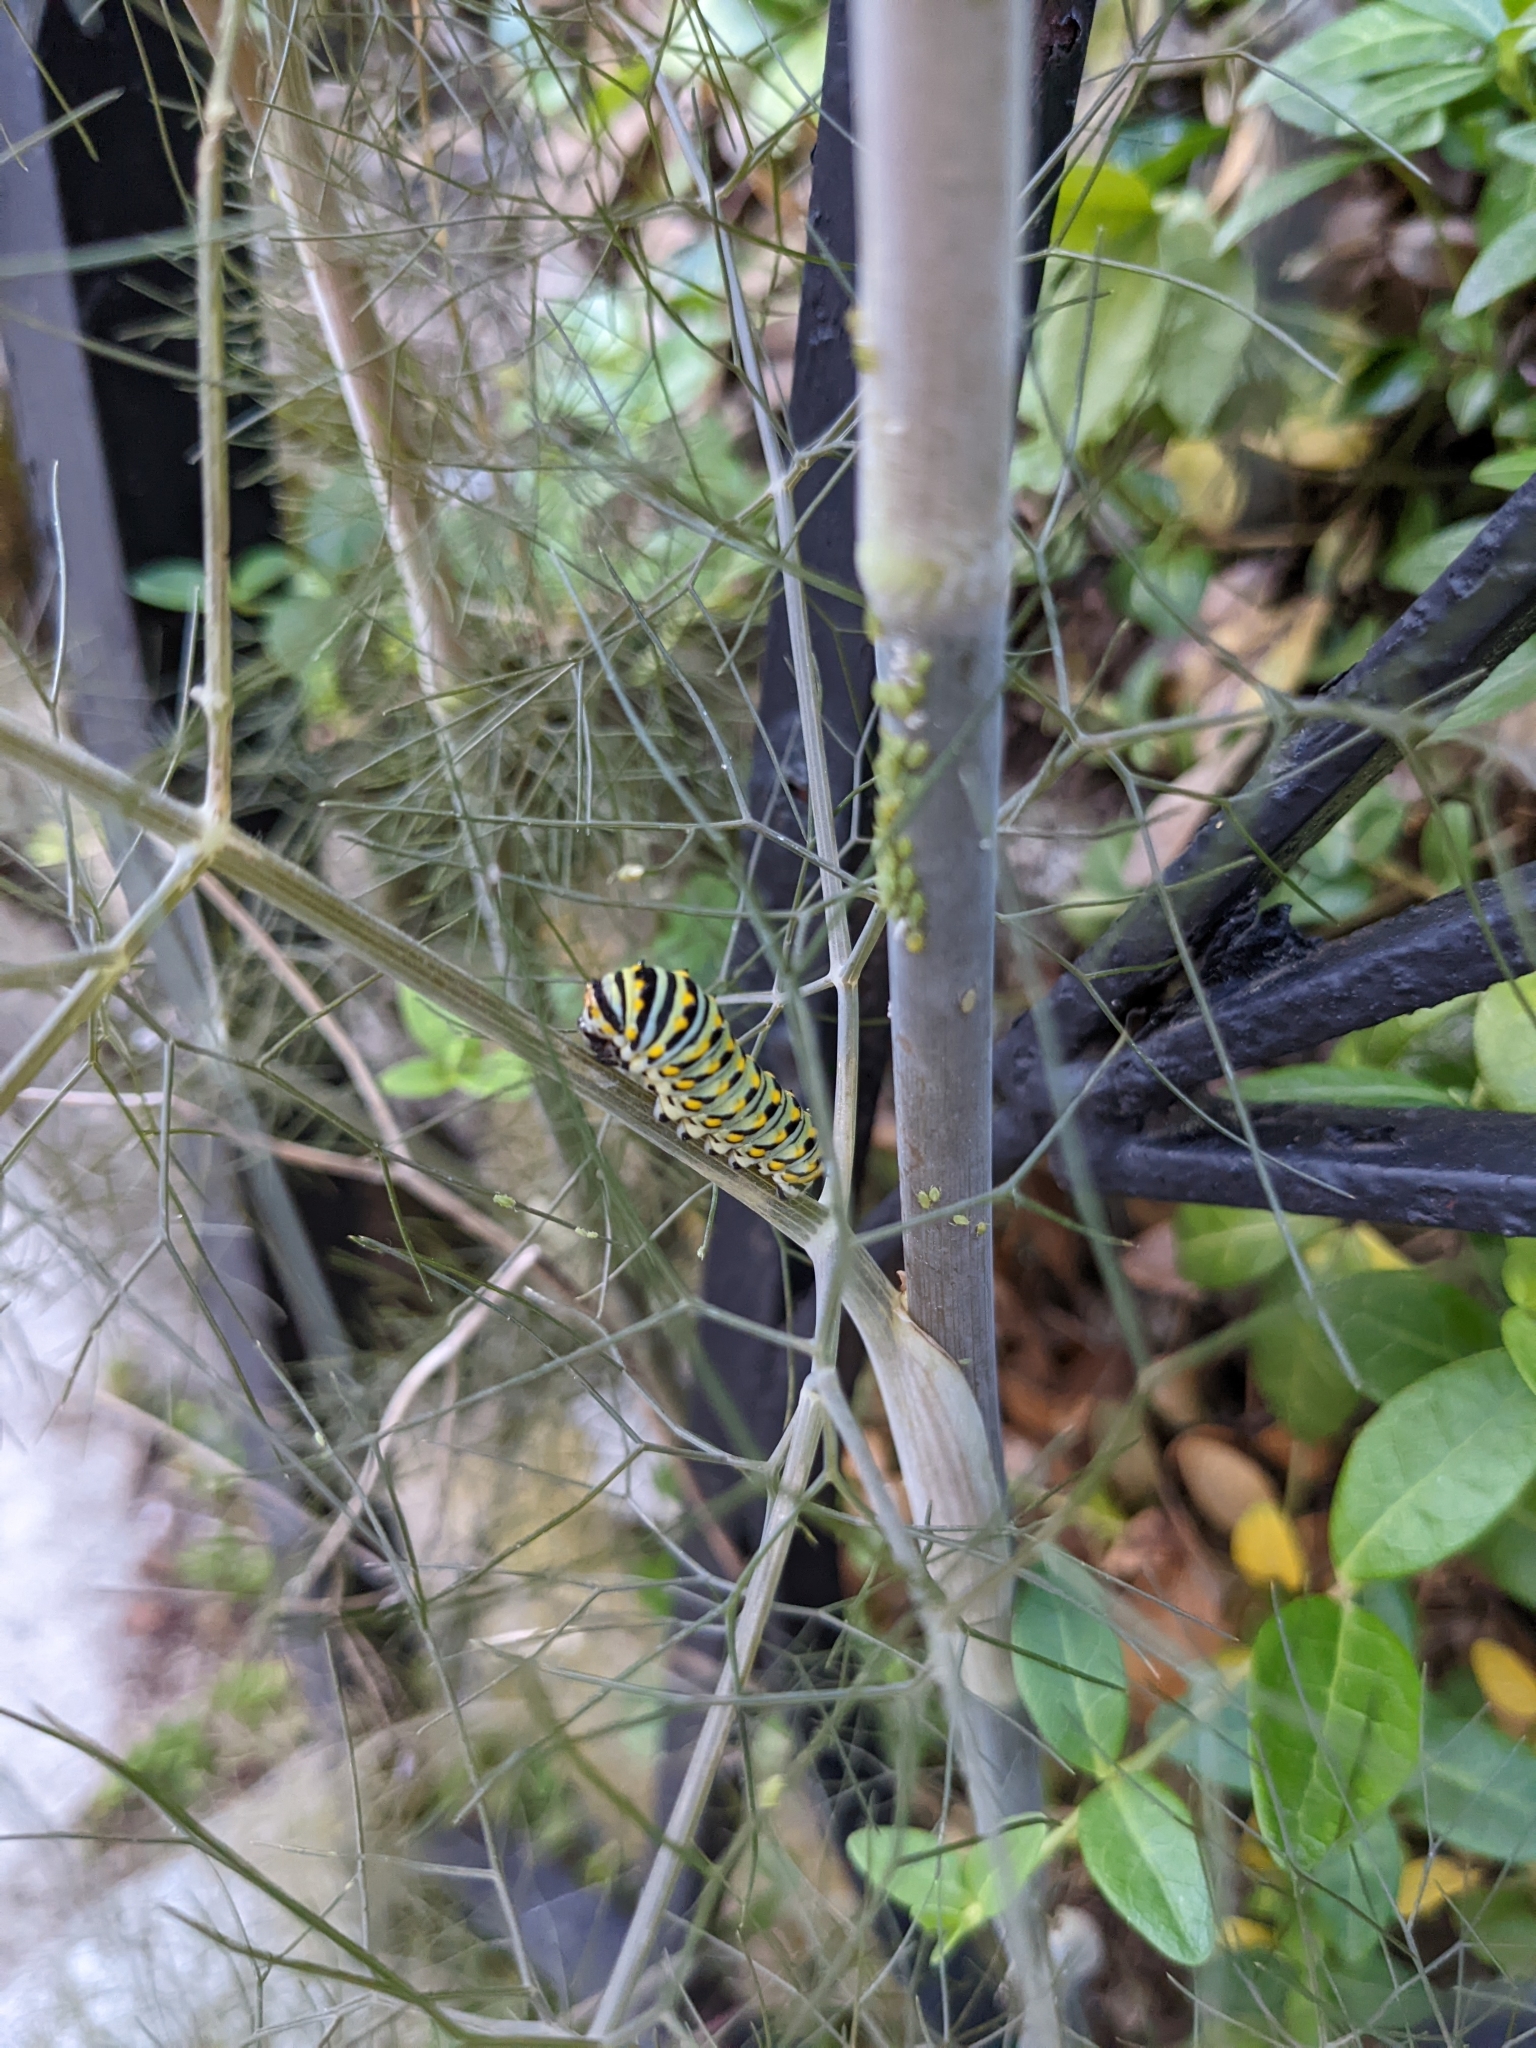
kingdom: Animalia
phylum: Arthropoda
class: Insecta
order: Lepidoptera
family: Papilionidae
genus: Papilio
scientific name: Papilio polyxenes
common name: Black swallowtail
